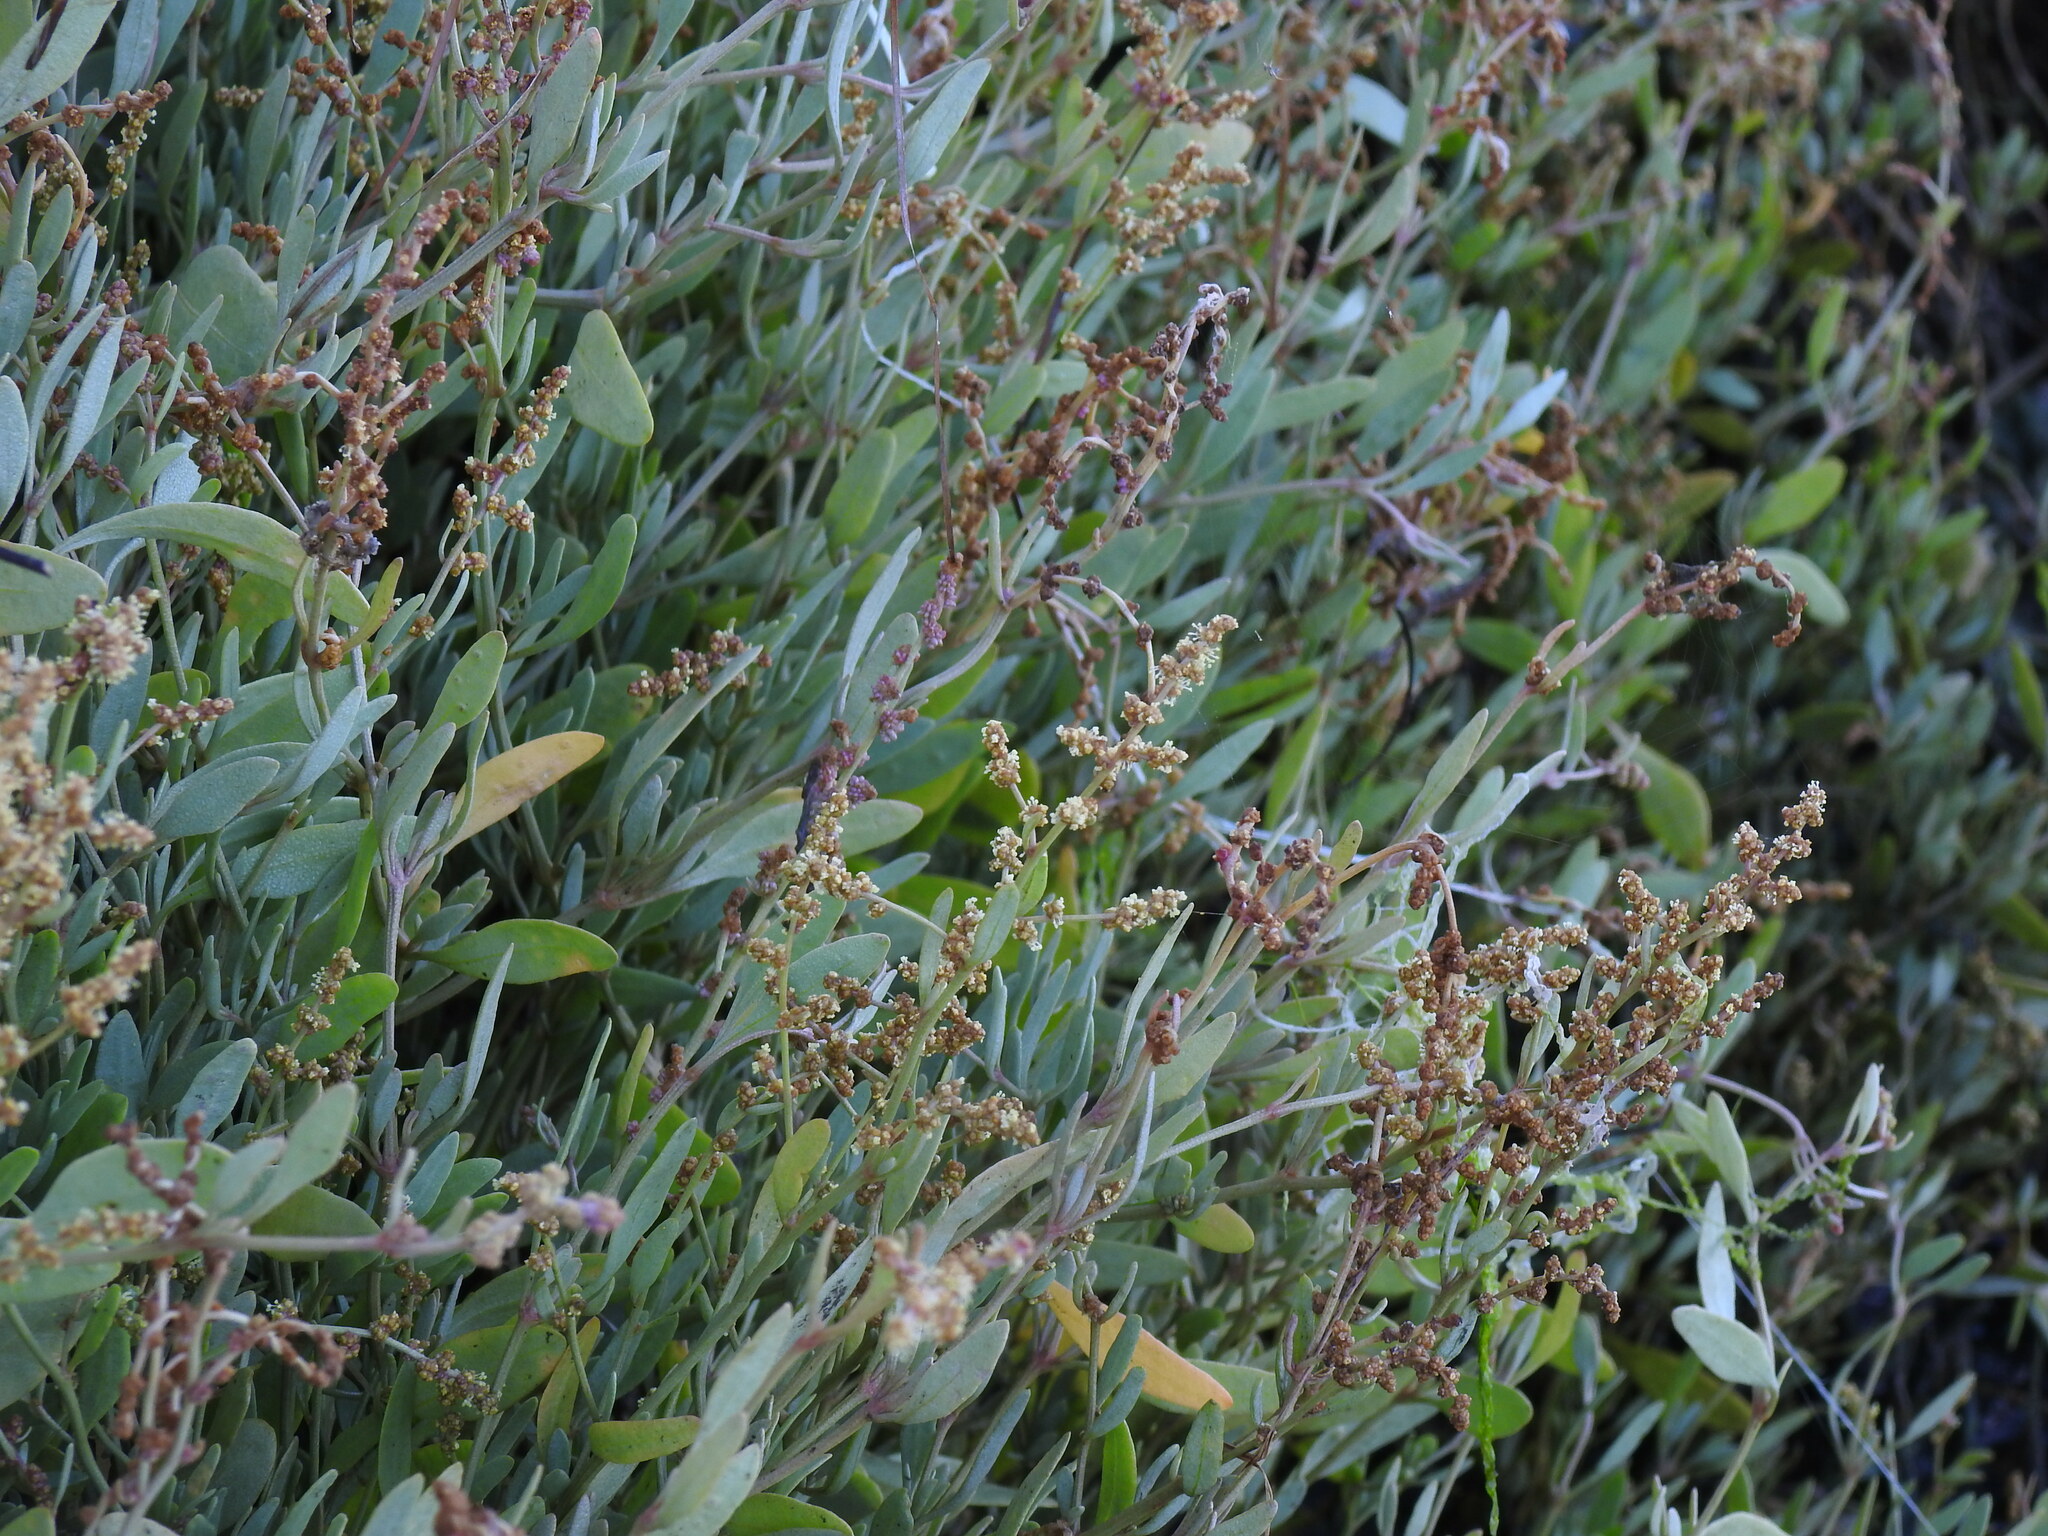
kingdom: Plantae
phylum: Tracheophyta
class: Magnoliopsida
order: Caryophyllales
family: Amaranthaceae
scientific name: Amaranthaceae
